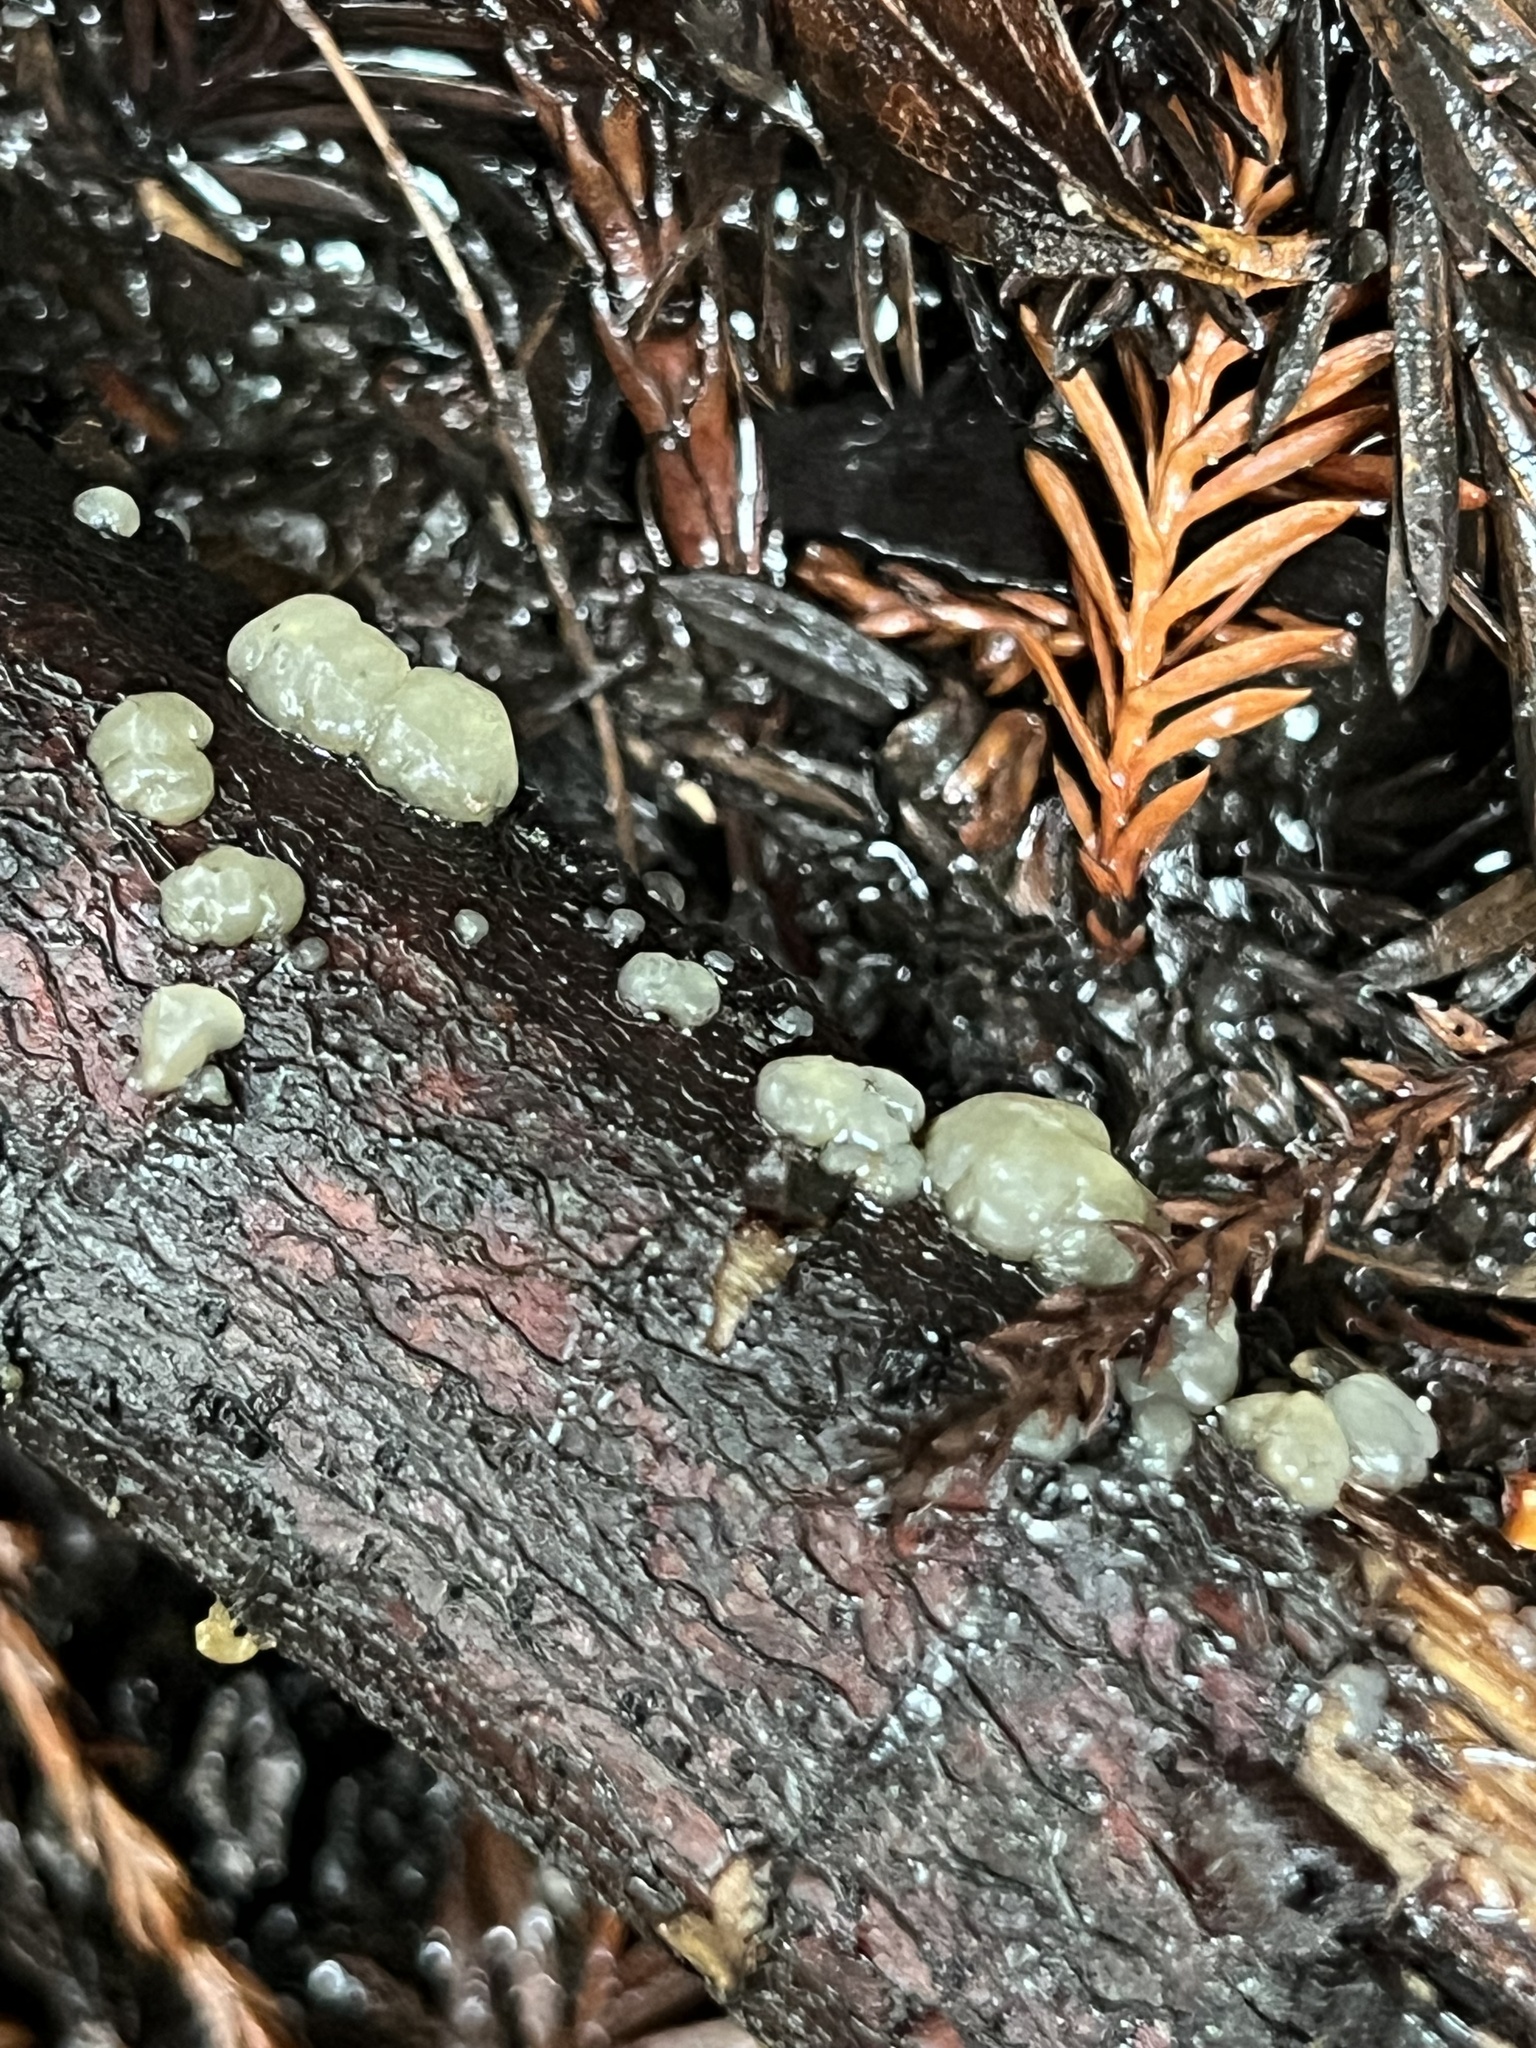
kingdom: Fungi
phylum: Basidiomycota
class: Agaricomycetes
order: Auriculariales
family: Hyaloriaceae
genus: Myxarium
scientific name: Myxarium nucleatum
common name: Crystal brain fungus
